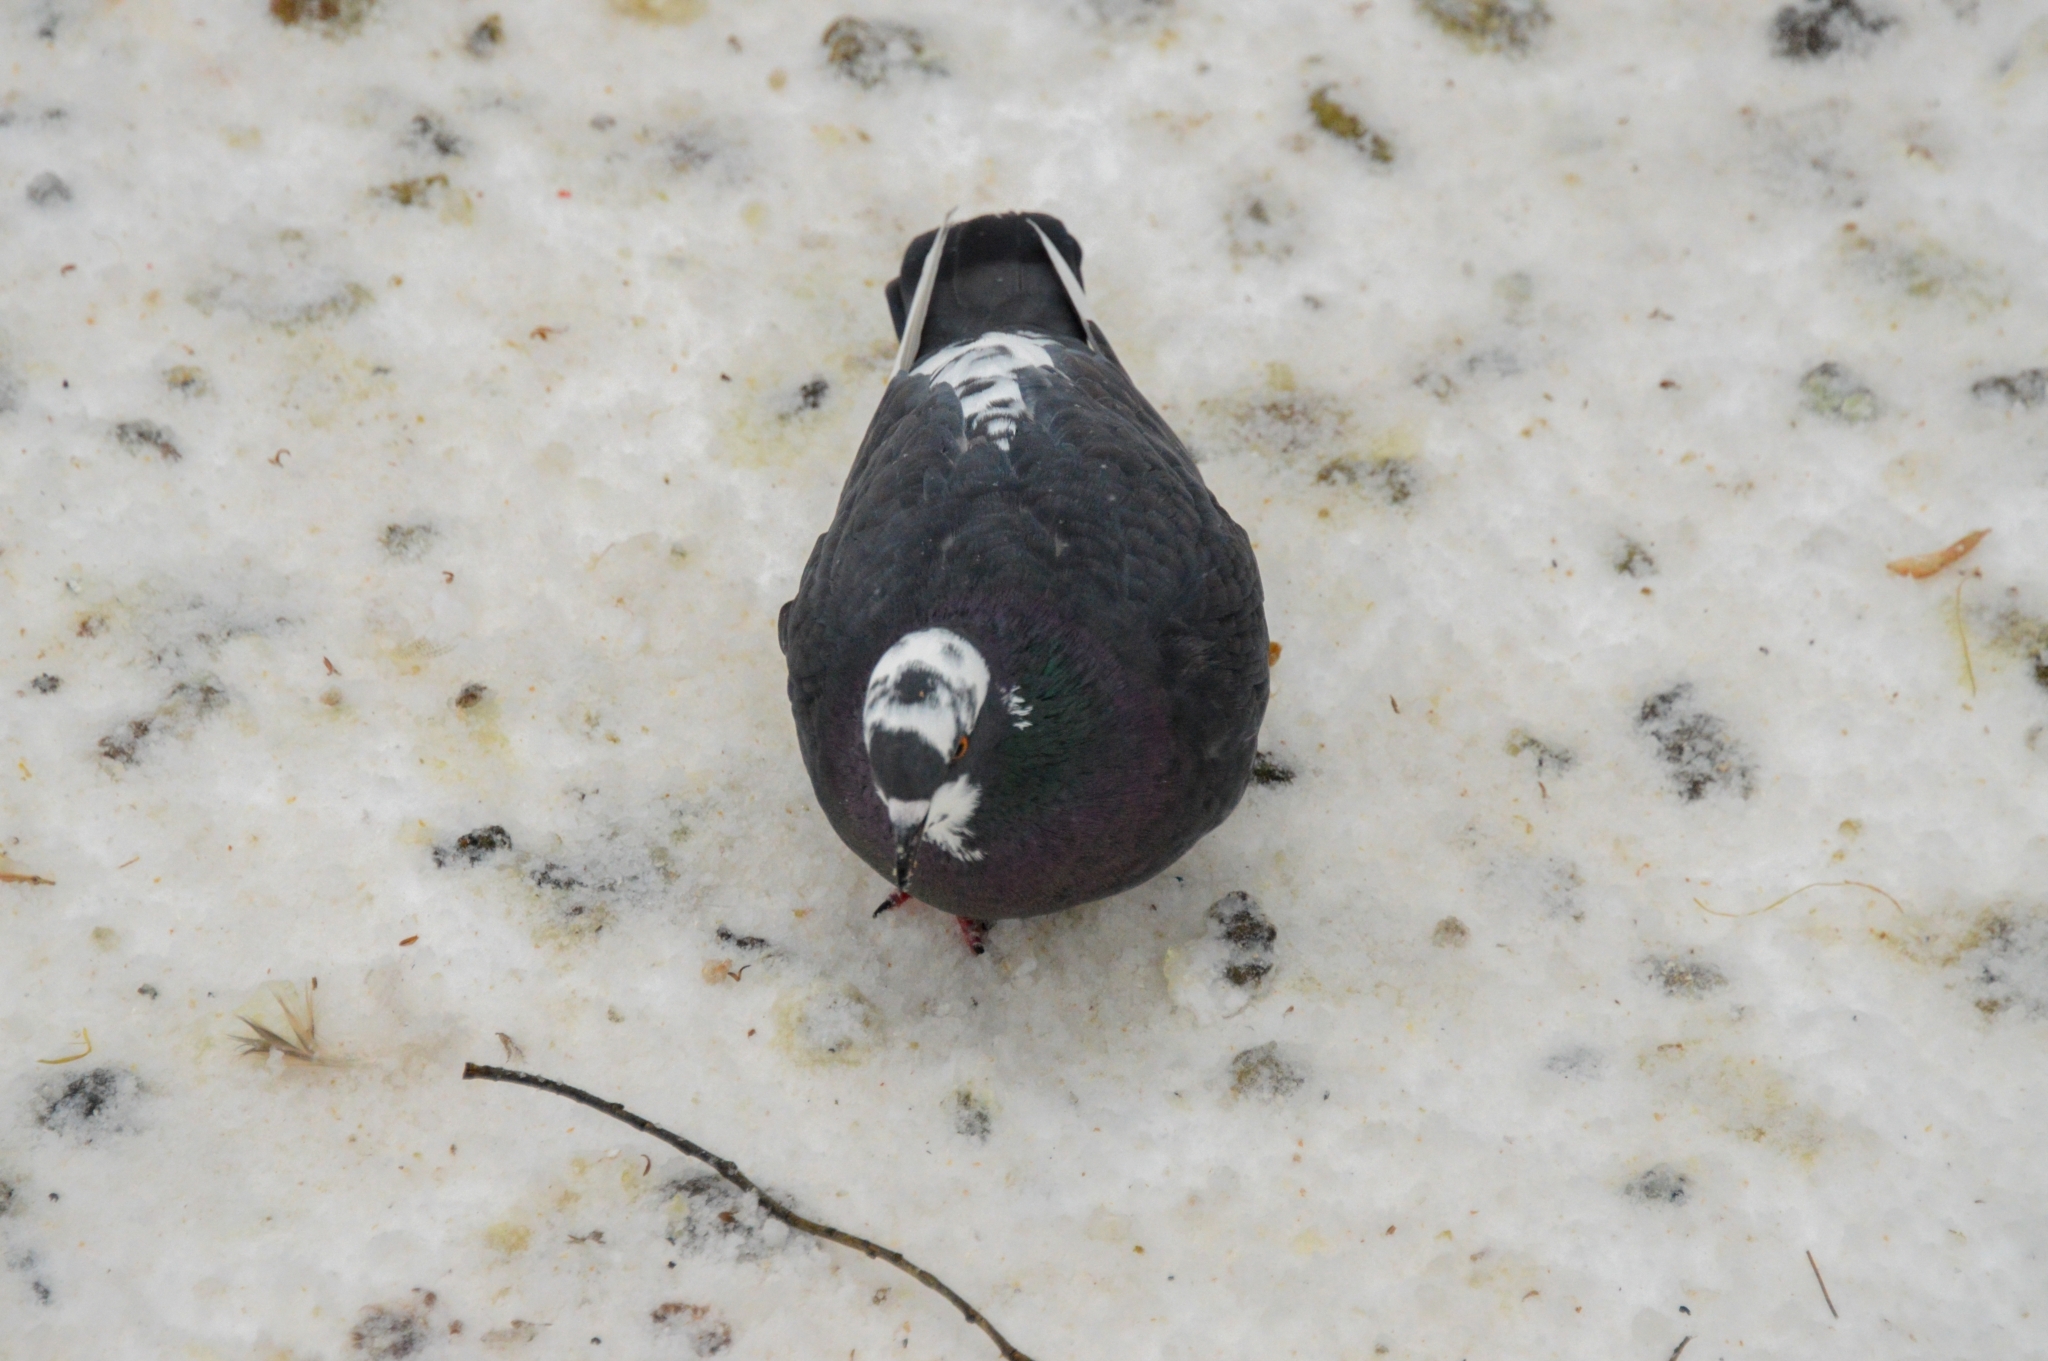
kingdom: Animalia
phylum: Chordata
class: Aves
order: Columbiformes
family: Columbidae
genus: Columba
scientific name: Columba livia
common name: Rock pigeon
